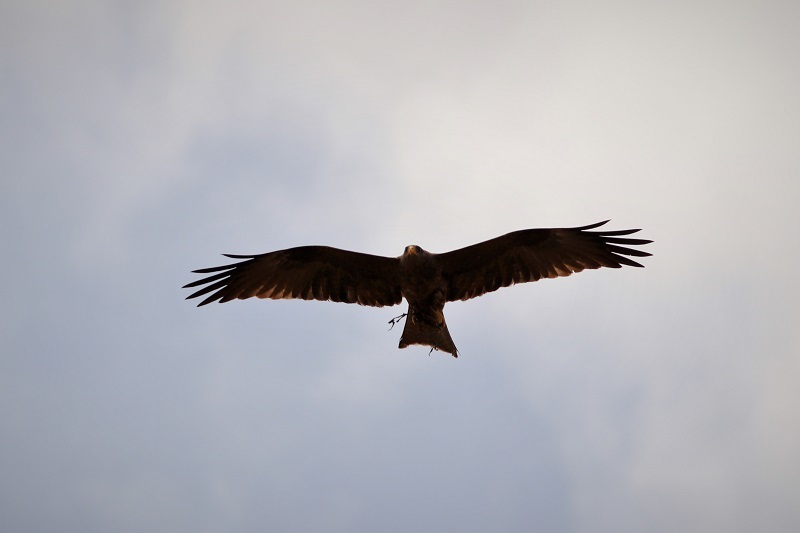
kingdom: Animalia
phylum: Chordata
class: Aves
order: Accipitriformes
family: Accipitridae
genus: Milvus
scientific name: Milvus migrans
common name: Black kite
